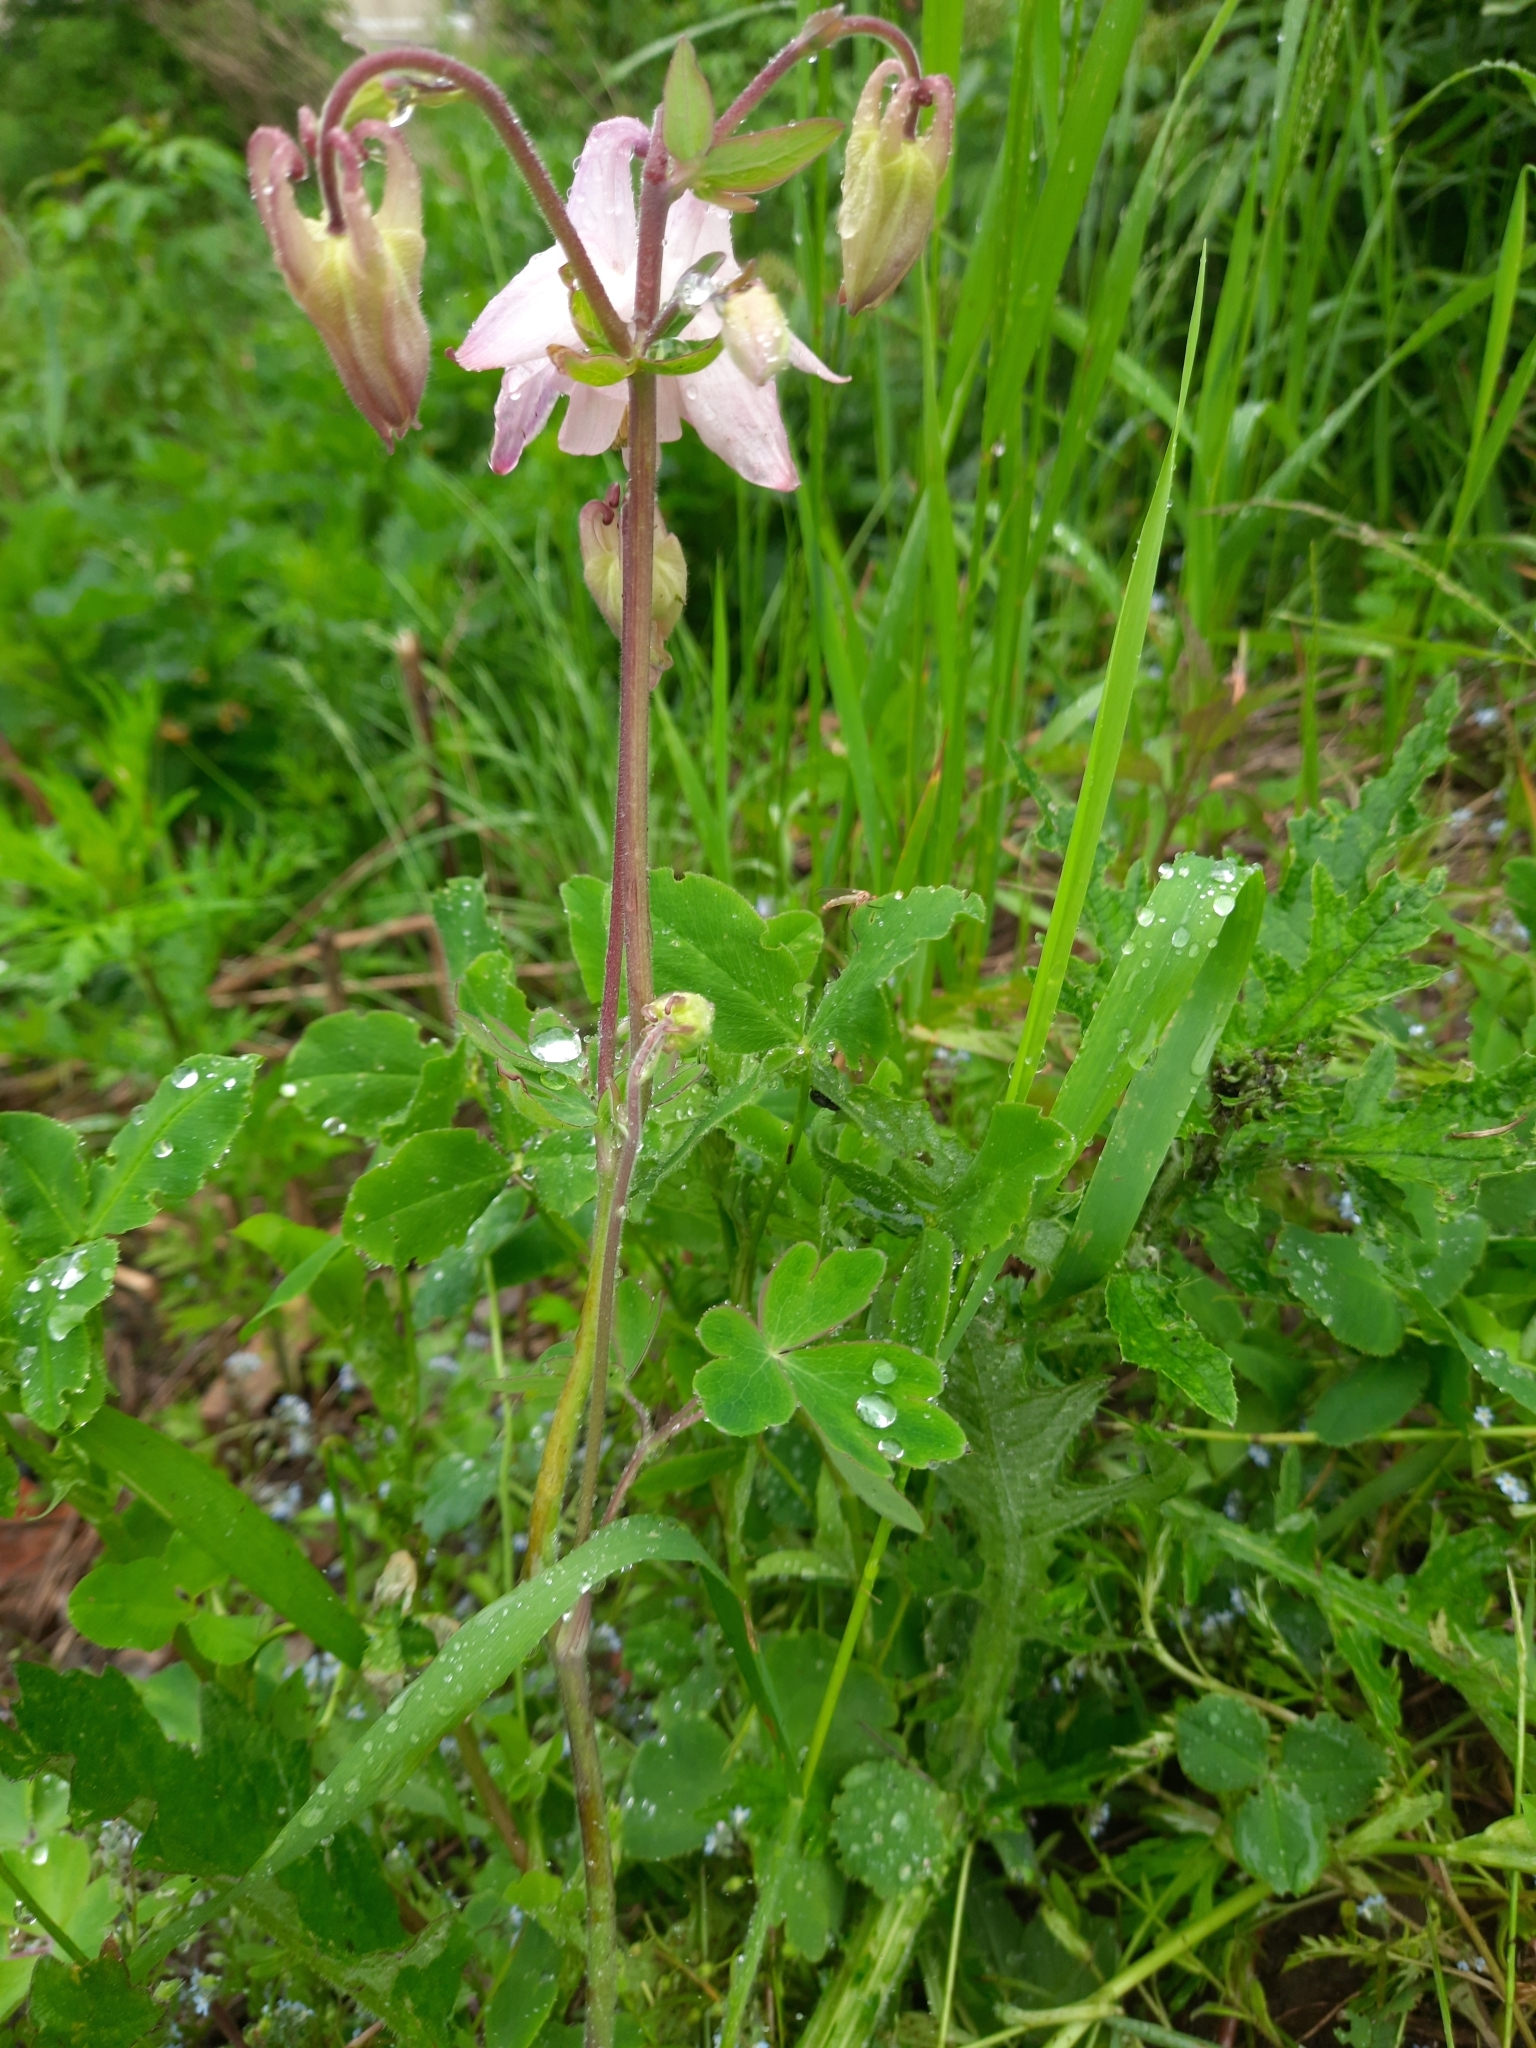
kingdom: Plantae
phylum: Tracheophyta
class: Magnoliopsida
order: Ranunculales
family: Ranunculaceae
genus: Aquilegia
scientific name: Aquilegia vulgaris
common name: Columbine
